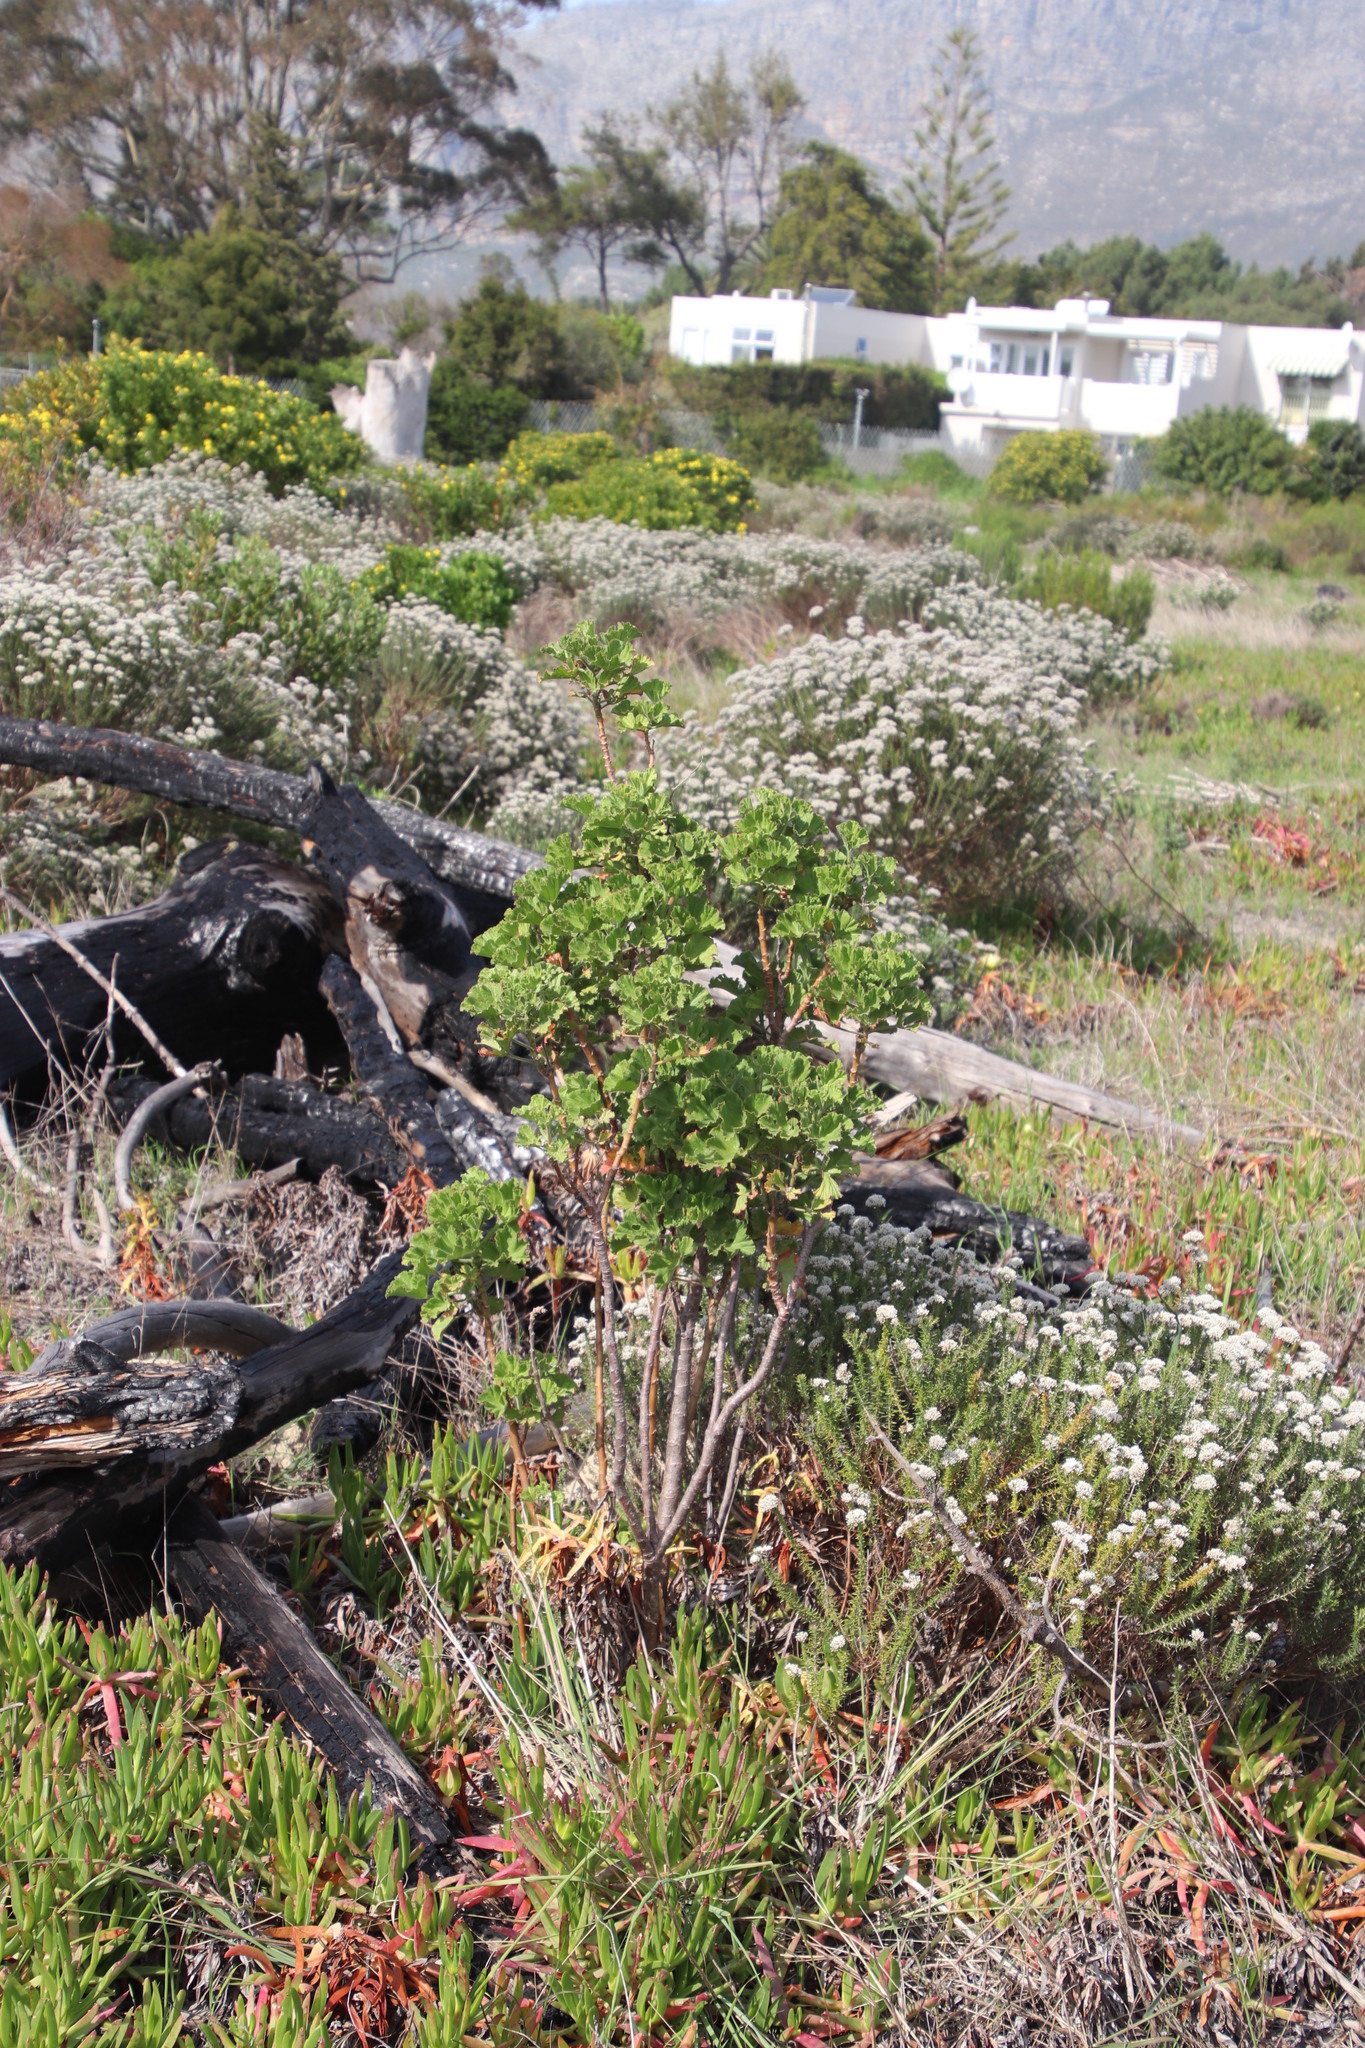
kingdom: Plantae
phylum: Tracheophyta
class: Magnoliopsida
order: Geraniales
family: Geraniaceae
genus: Pelargonium
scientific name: Pelargonium cucullatum
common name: Tree pelargonium
